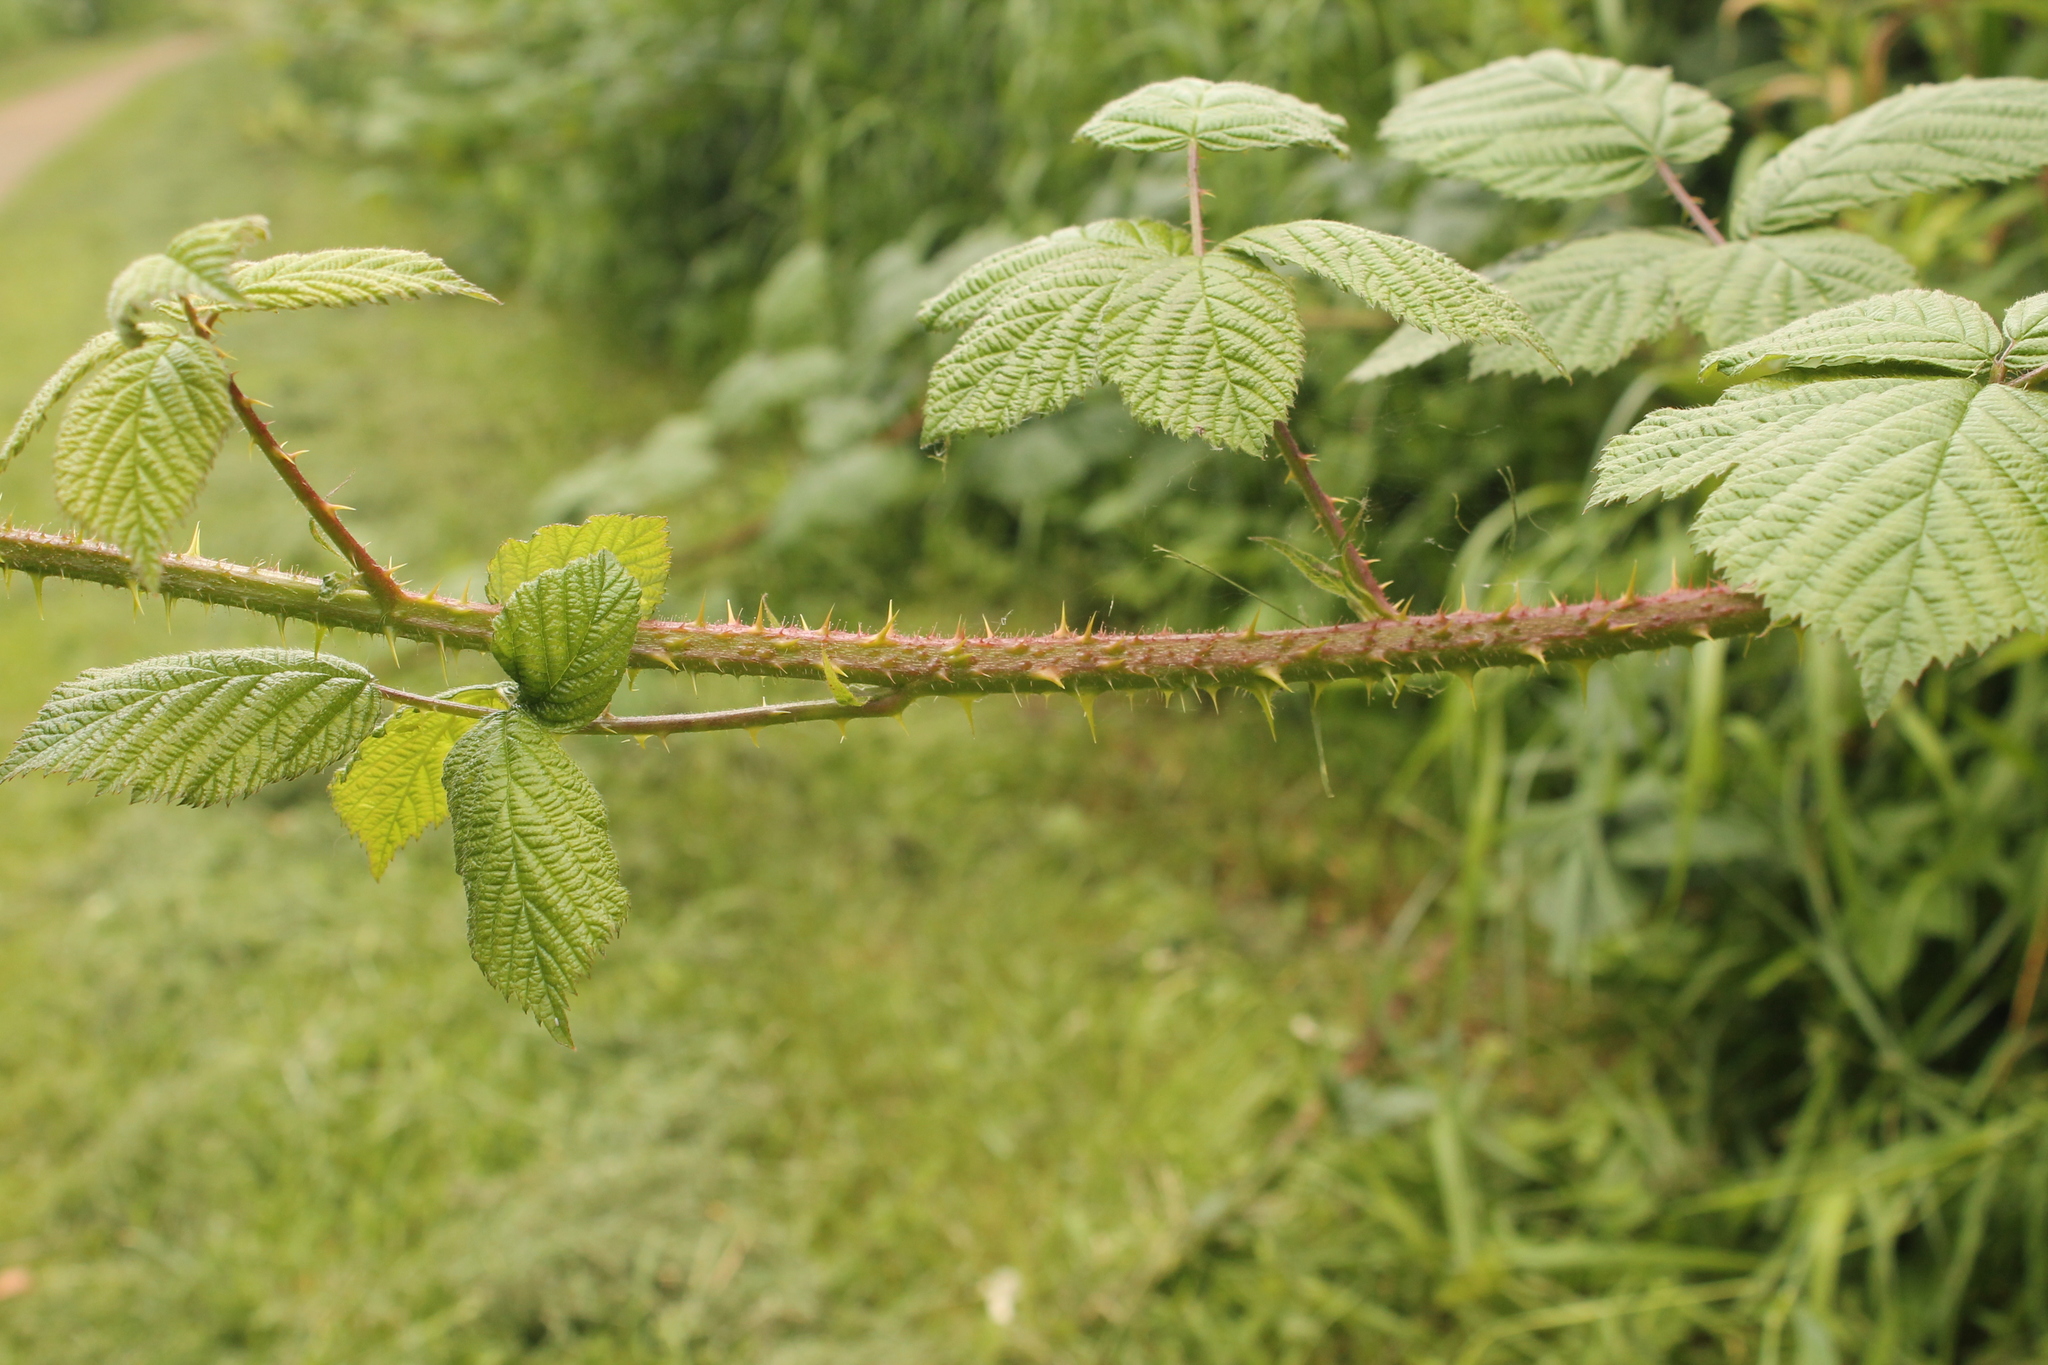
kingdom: Plantae
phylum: Tracheophyta
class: Magnoliopsida
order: Rosales
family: Rosaceae
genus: Rubus
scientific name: Rubus horrefactus
